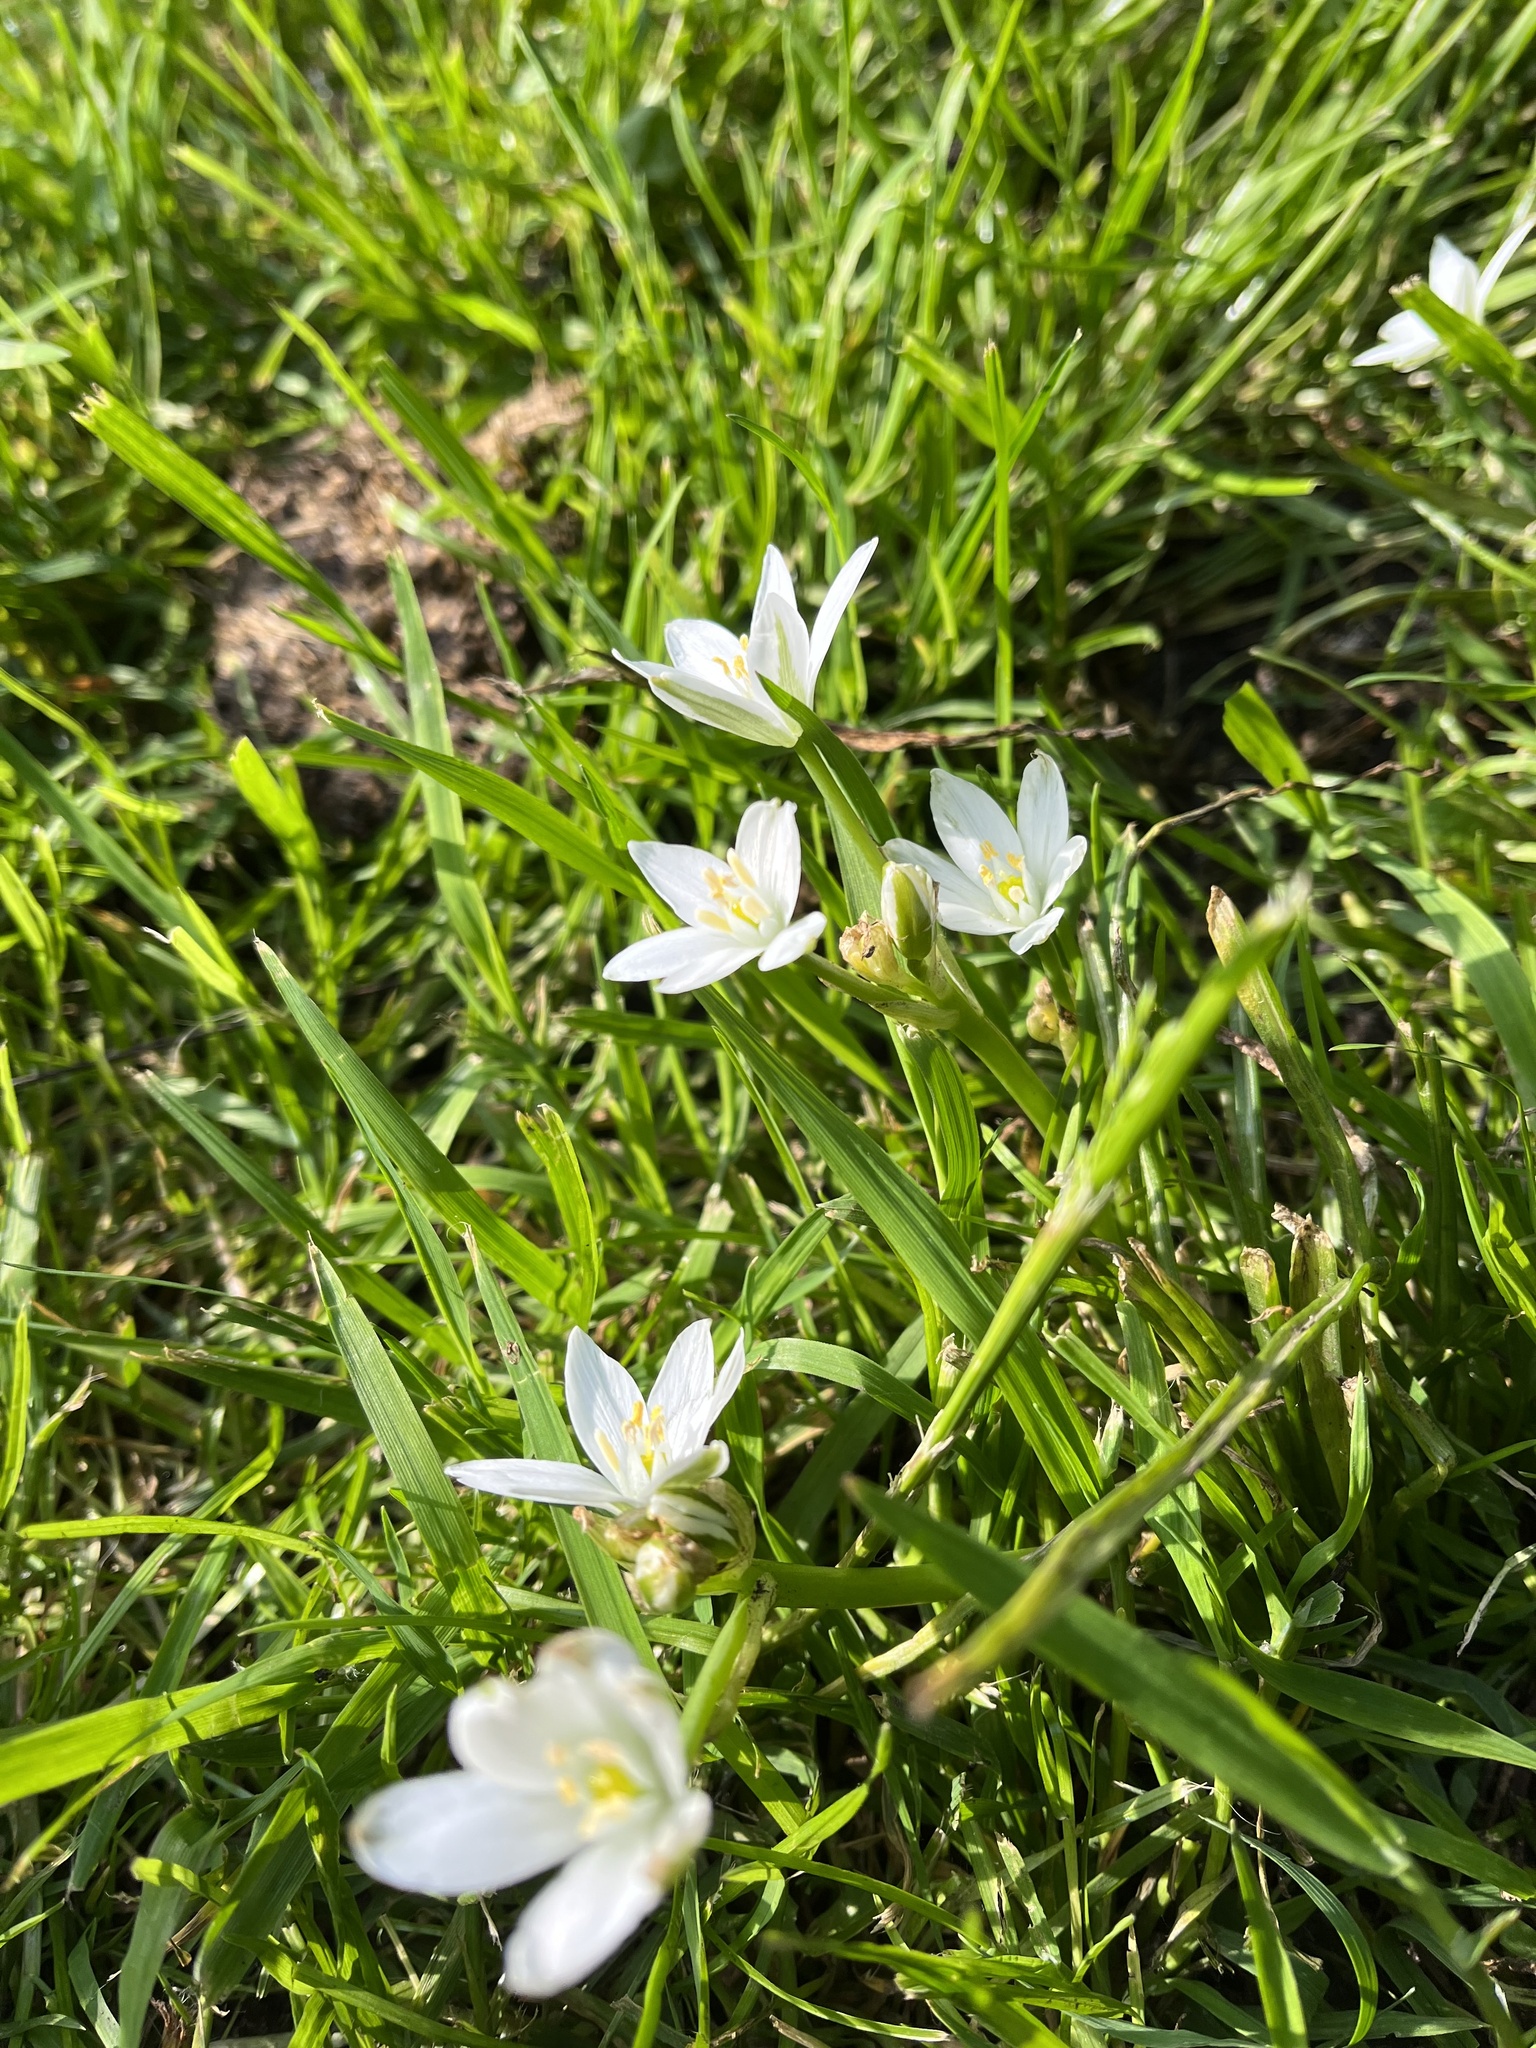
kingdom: Plantae
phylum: Tracheophyta
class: Liliopsida
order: Asparagales
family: Asparagaceae
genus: Ornithogalum
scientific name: Ornithogalum umbellatum
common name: Garden star-of-bethlehem
